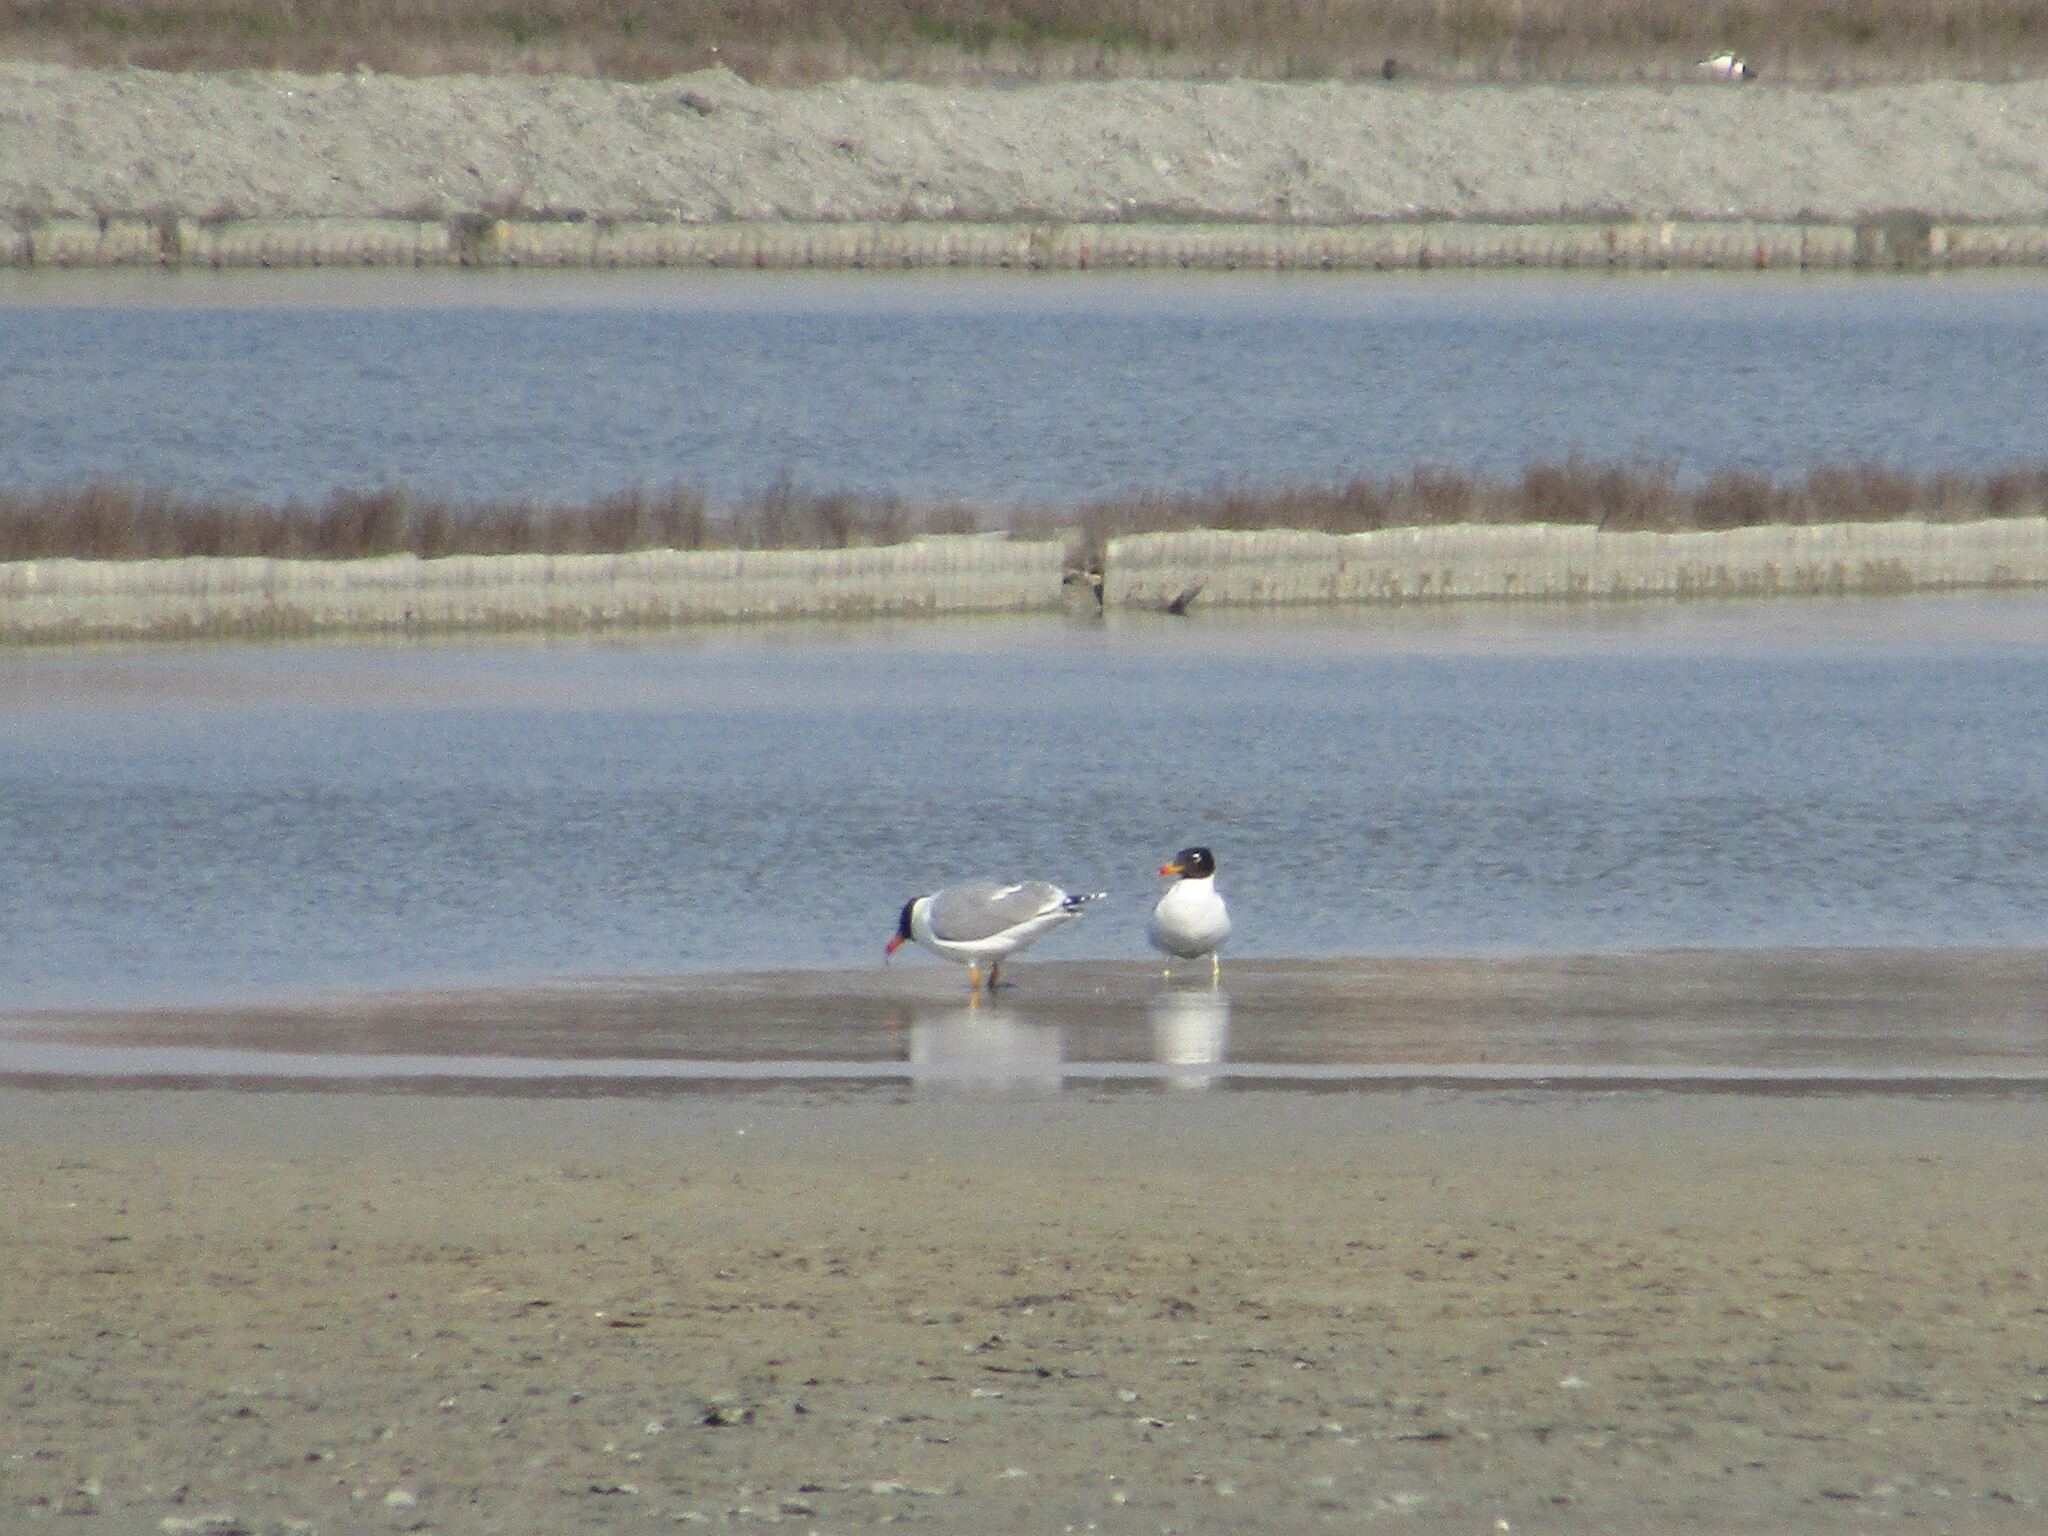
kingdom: Animalia
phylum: Chordata
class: Aves
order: Charadriiformes
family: Laridae
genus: Ichthyaetus
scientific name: Ichthyaetus ichthyaetus
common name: Pallas's gull
